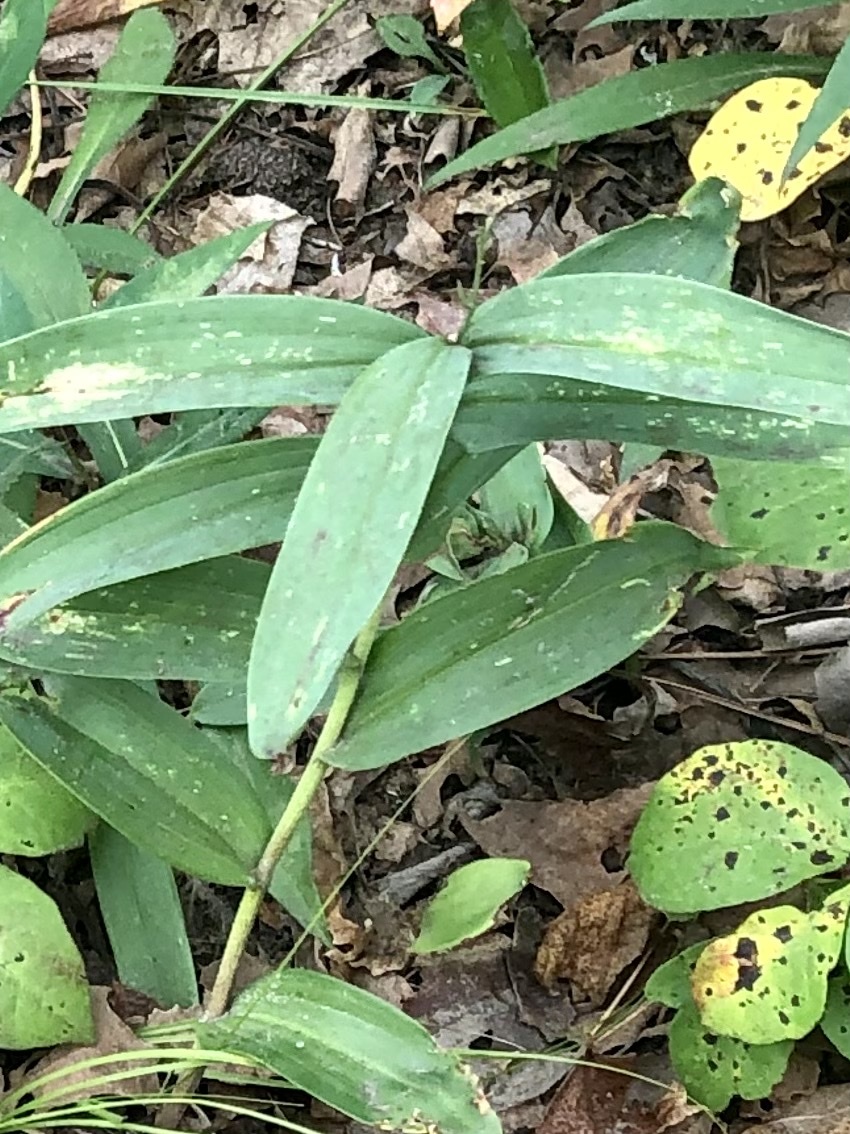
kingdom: Plantae
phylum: Tracheophyta
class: Liliopsida
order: Asparagales
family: Asparagaceae
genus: Maianthemum
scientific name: Maianthemum stellatum
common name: Little false solomon's seal
